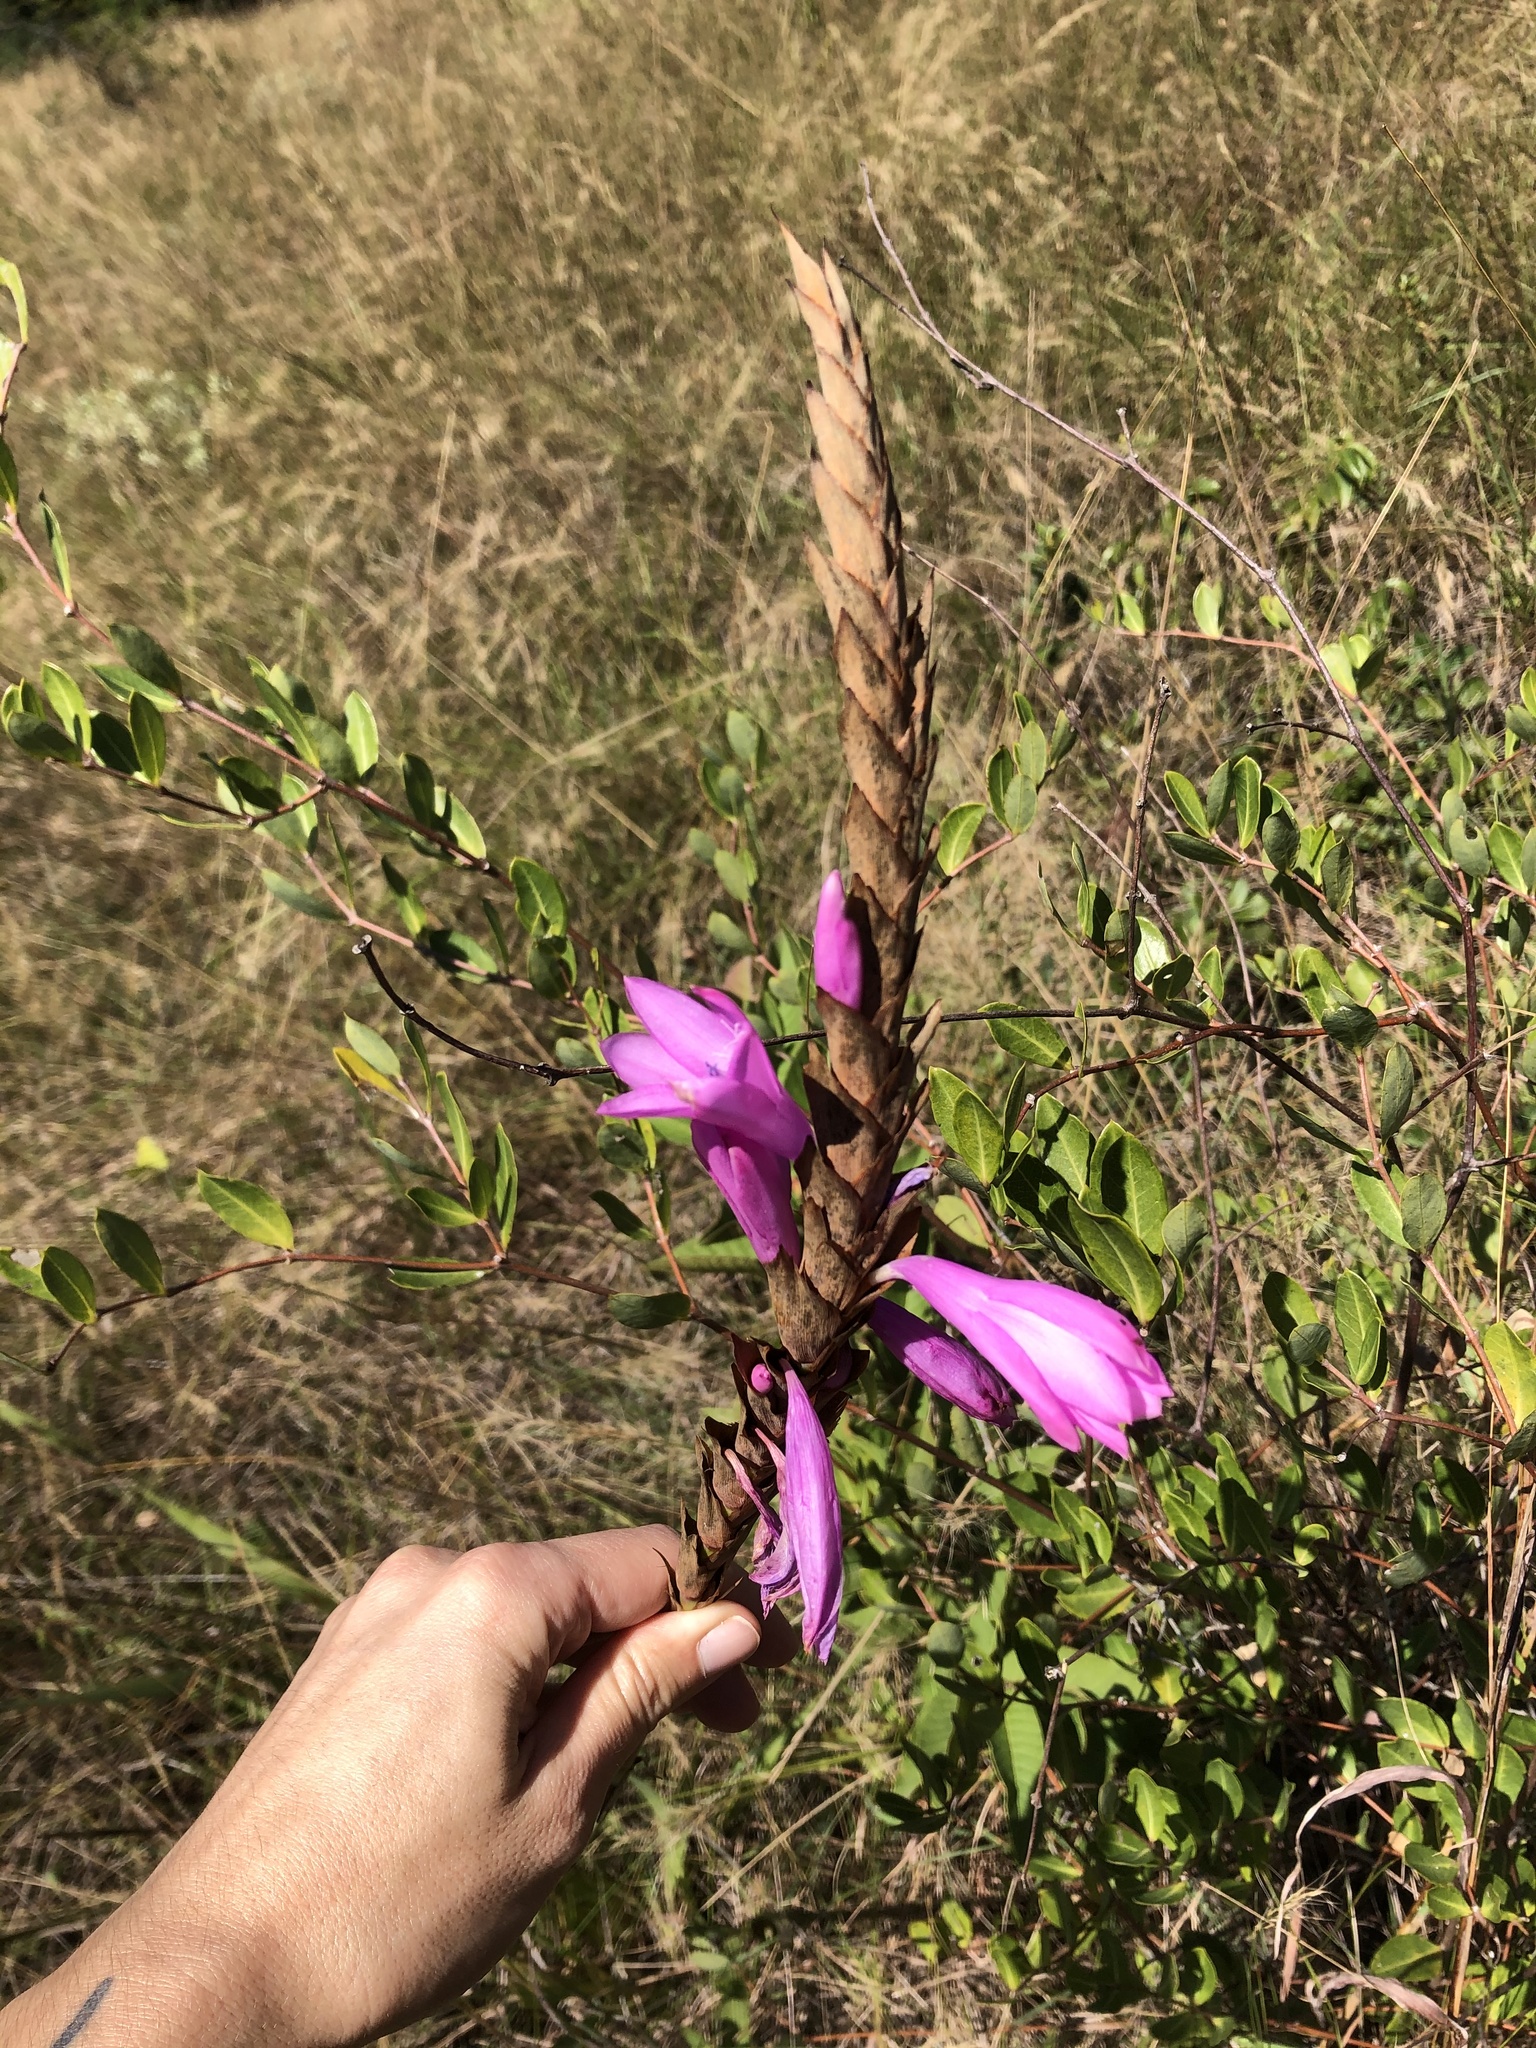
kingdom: Plantae
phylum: Tracheophyta
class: Liliopsida
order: Asparagales
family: Iridaceae
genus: Watsonia
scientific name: Watsonia densiflora
